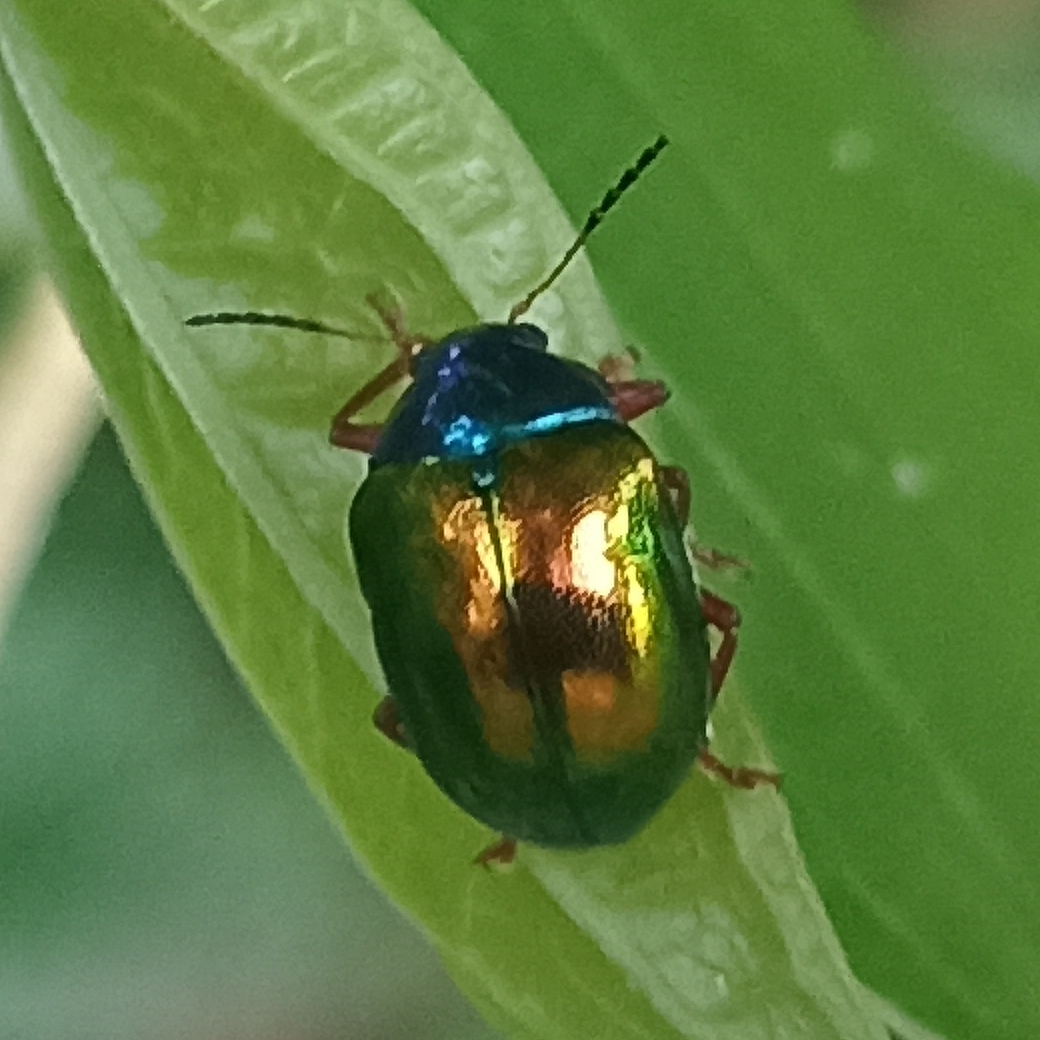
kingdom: Animalia
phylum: Arthropoda
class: Insecta
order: Coleoptera
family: Chrysomelidae
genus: Iphimeis
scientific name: Iphimeis
